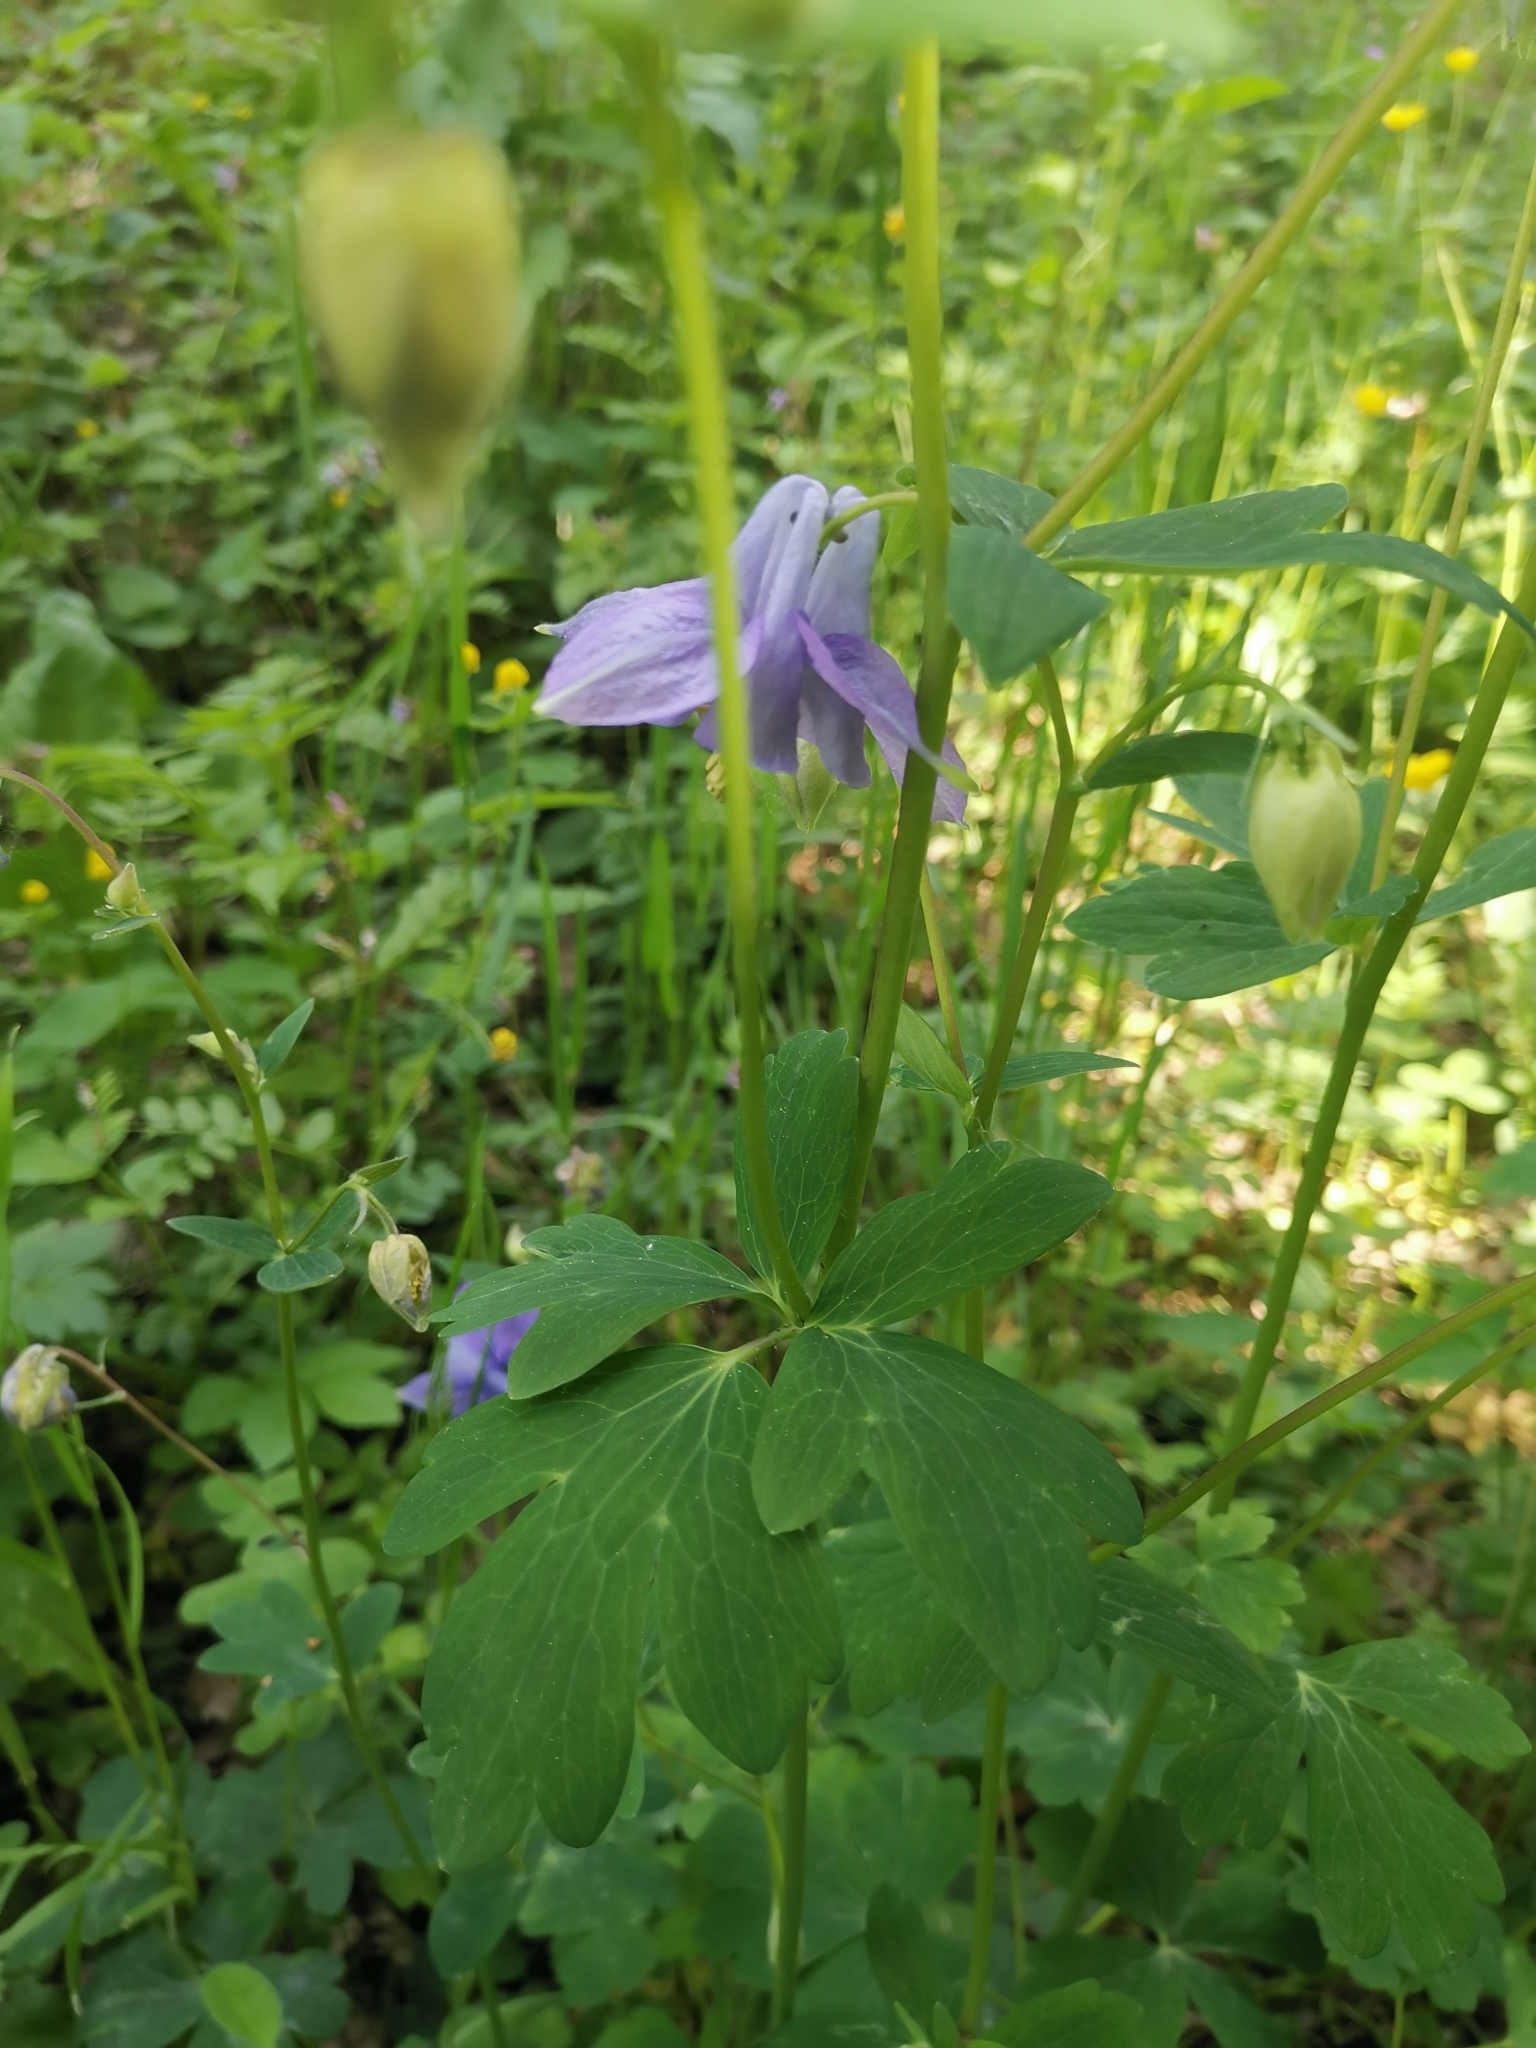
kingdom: Plantae
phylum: Tracheophyta
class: Magnoliopsida
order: Ranunculales
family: Ranunculaceae
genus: Aquilegia
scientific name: Aquilegia vulgaris
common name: Columbine
